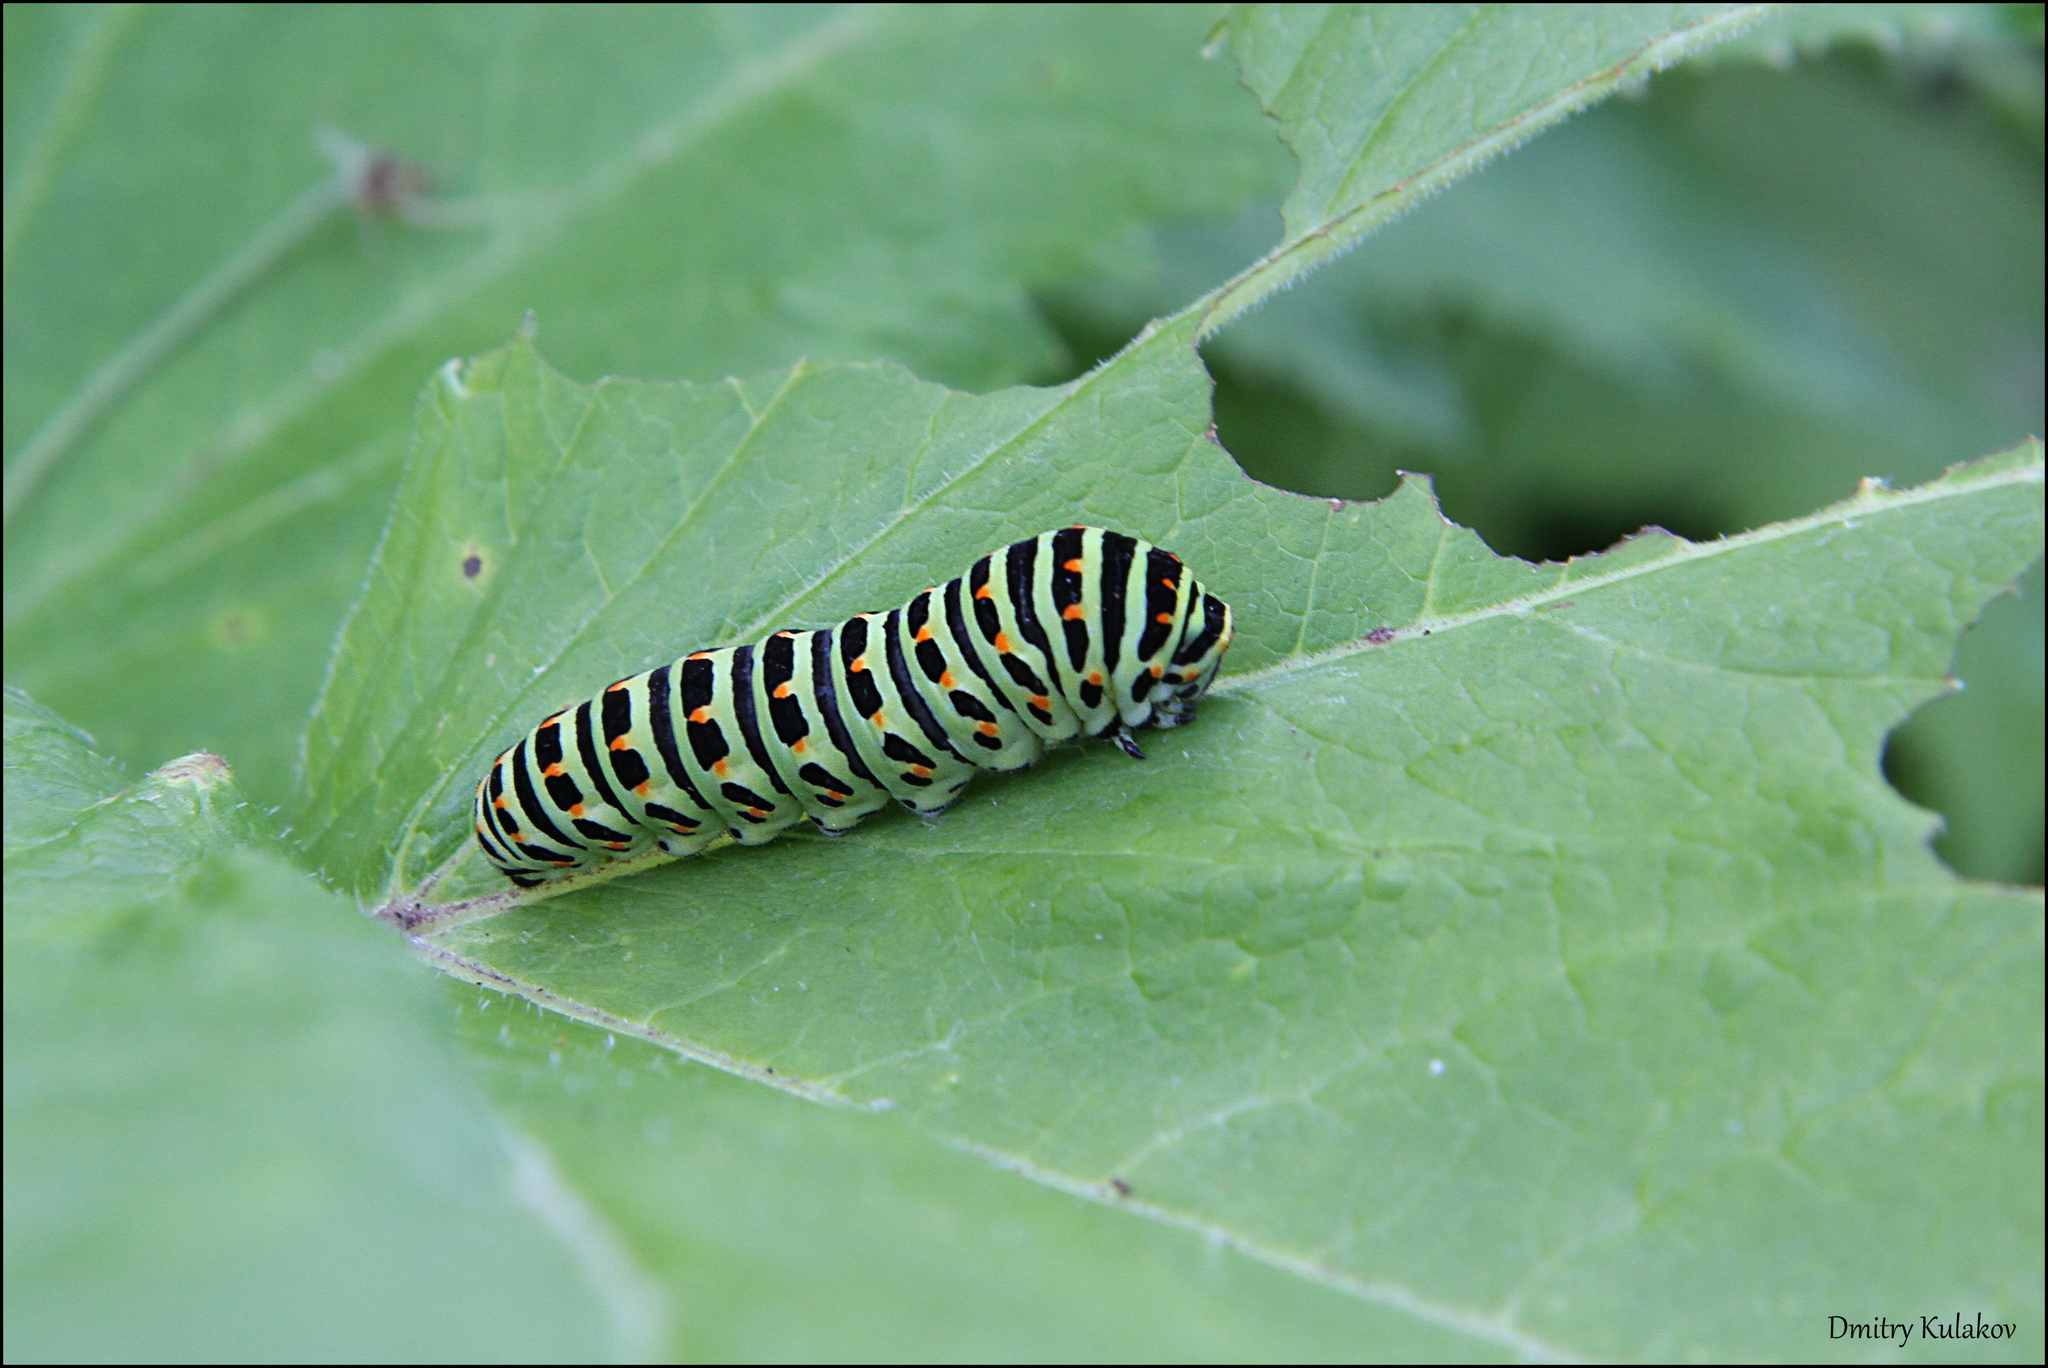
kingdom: Animalia
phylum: Arthropoda
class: Insecta
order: Lepidoptera
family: Papilionidae
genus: Papilio
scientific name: Papilio machaon
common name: Swallowtail
